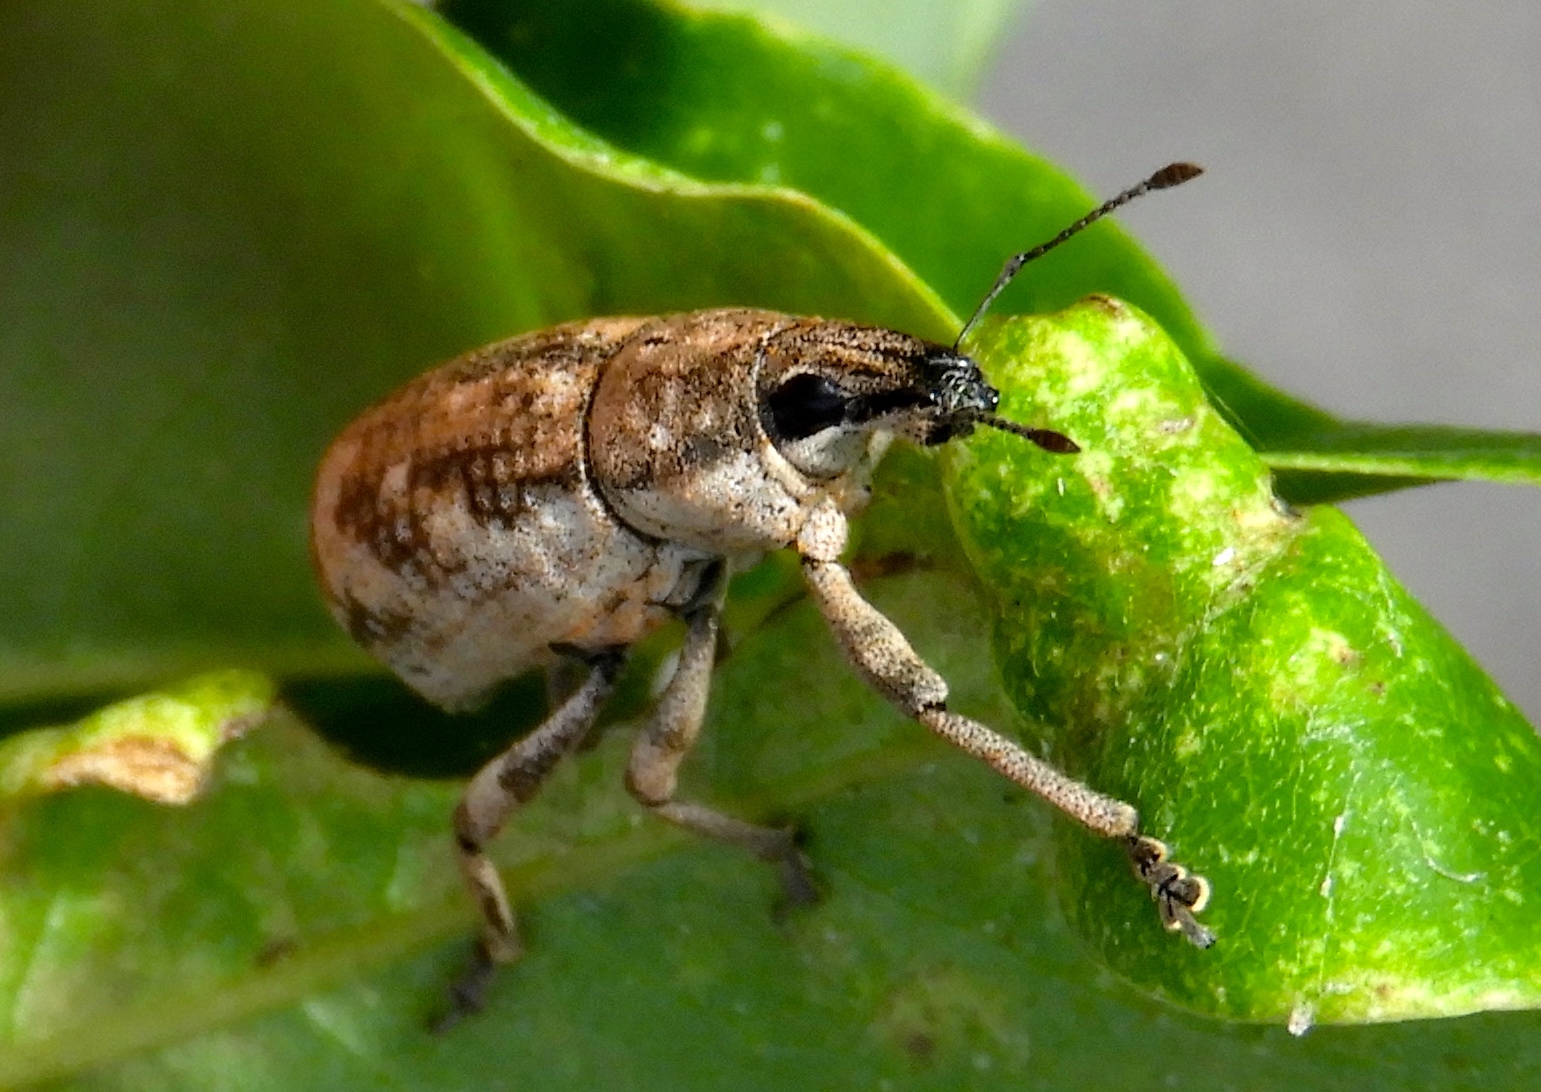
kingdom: Animalia
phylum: Arthropoda
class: Insecta
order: Coleoptera
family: Curculionidae
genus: Epicaerus
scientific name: Epicaerus
